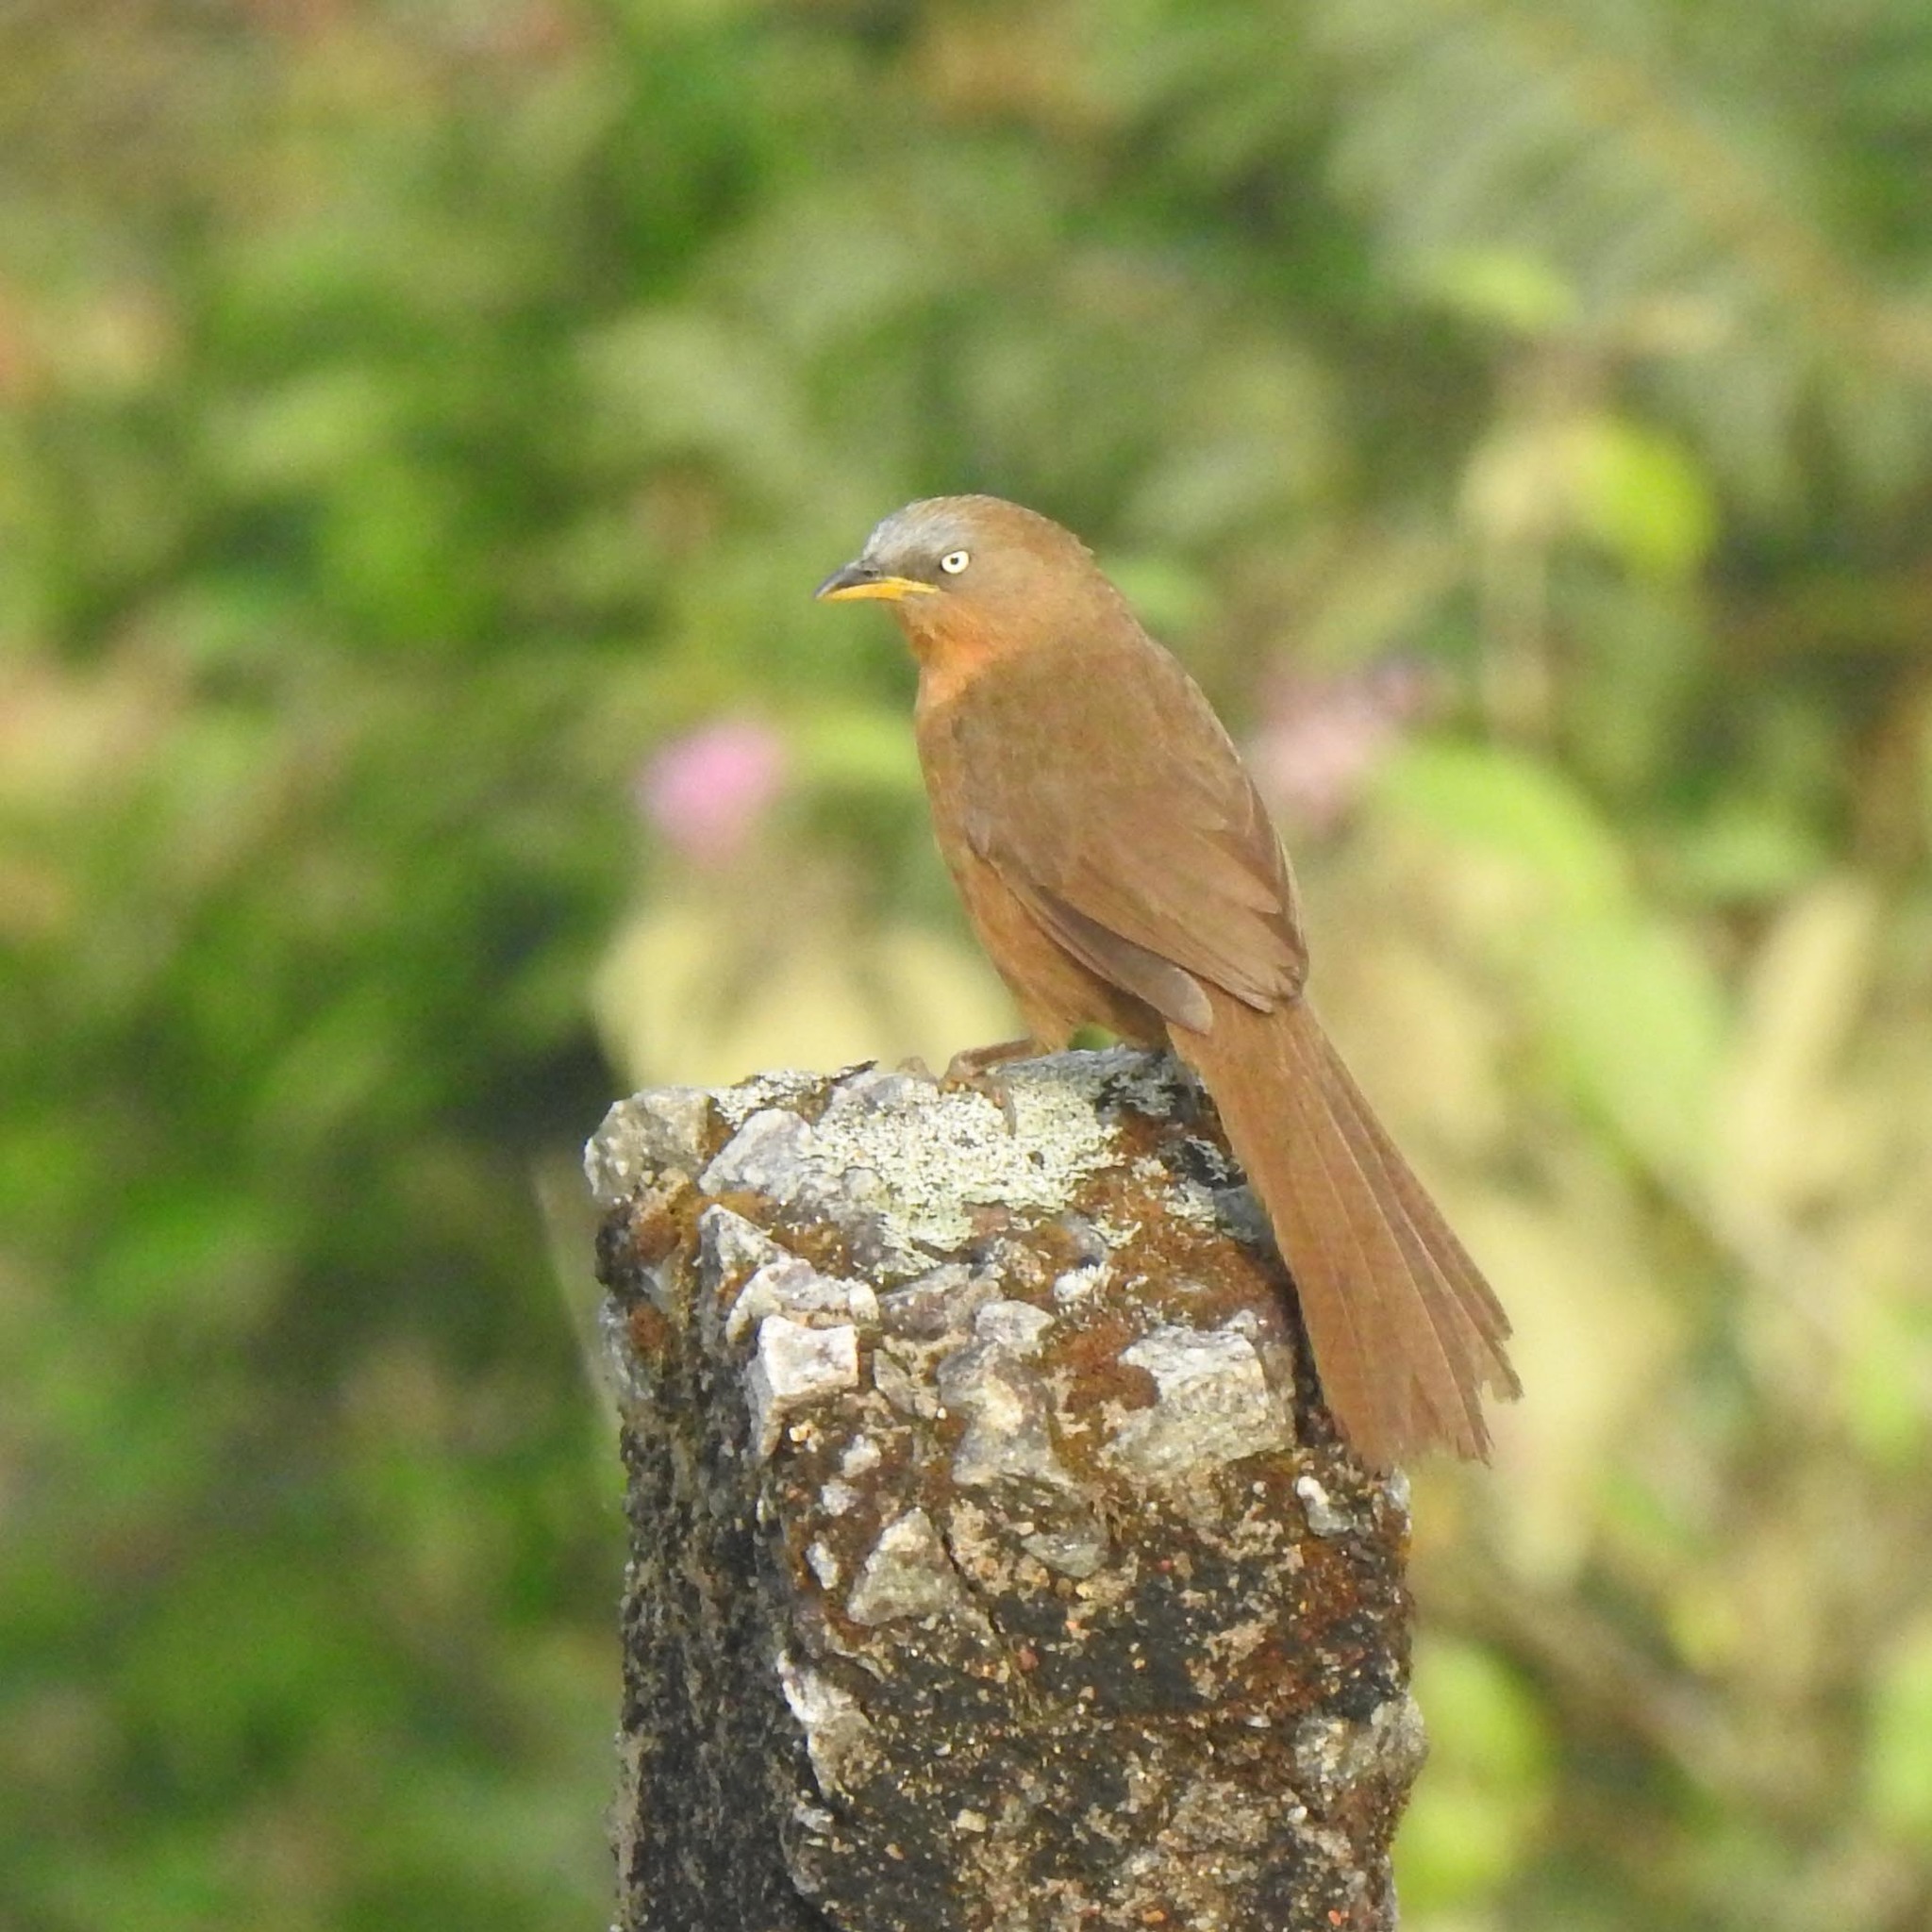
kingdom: Animalia
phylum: Chordata
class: Aves
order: Passeriformes
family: Leiothrichidae
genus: Turdoides
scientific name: Turdoides subrufa
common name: Rufous babbler
